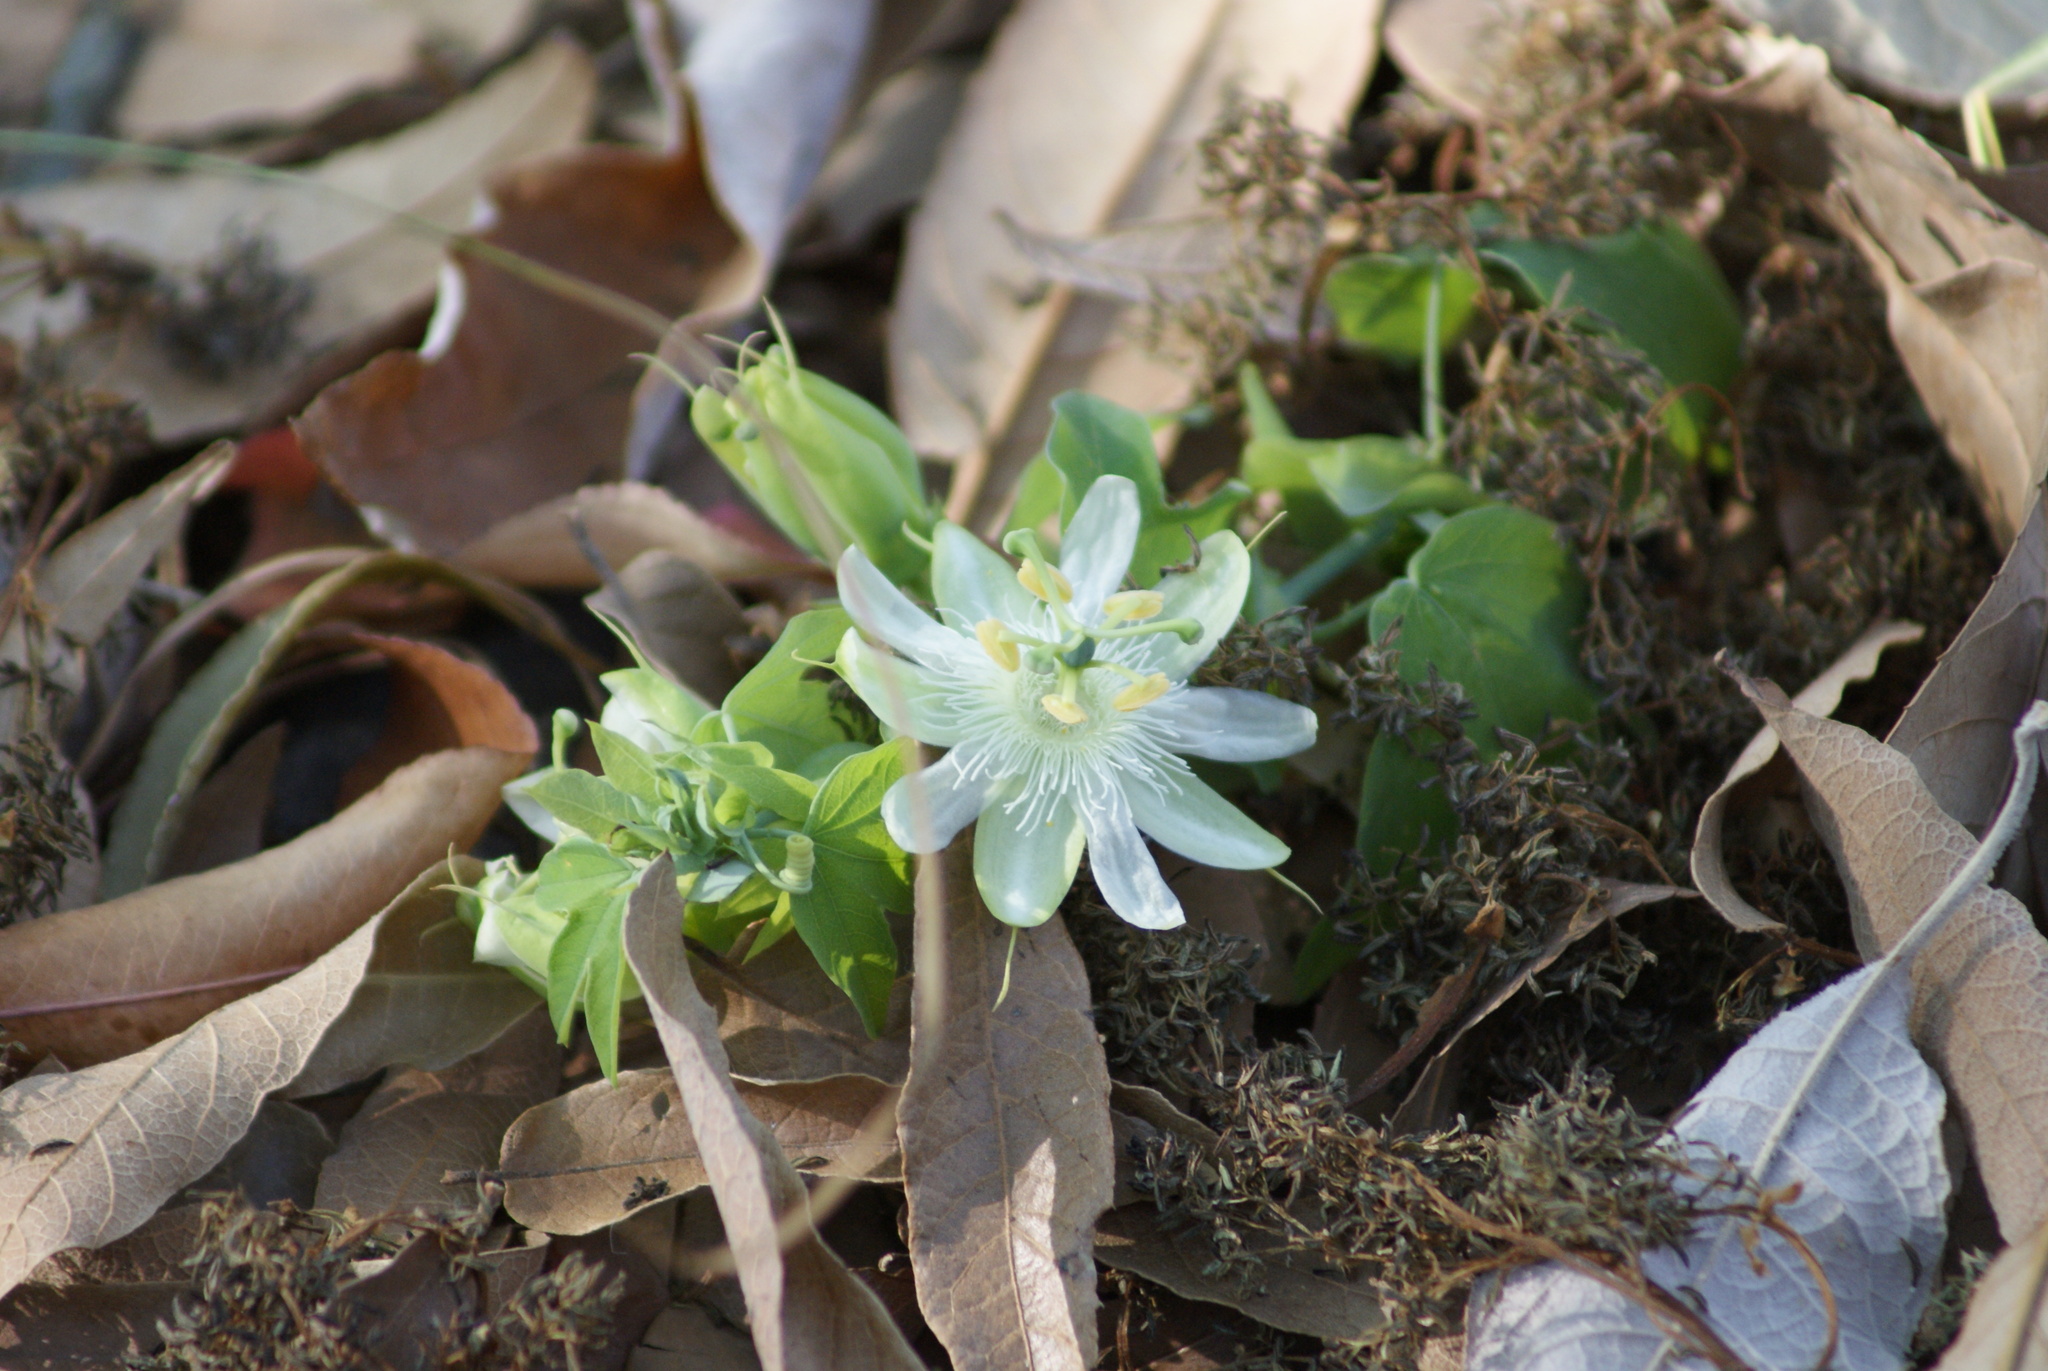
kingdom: Plantae
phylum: Tracheophyta
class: Magnoliopsida
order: Malpighiales
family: Passifloraceae
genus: Passiflora
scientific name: Passiflora subpeltata
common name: White passionflower
